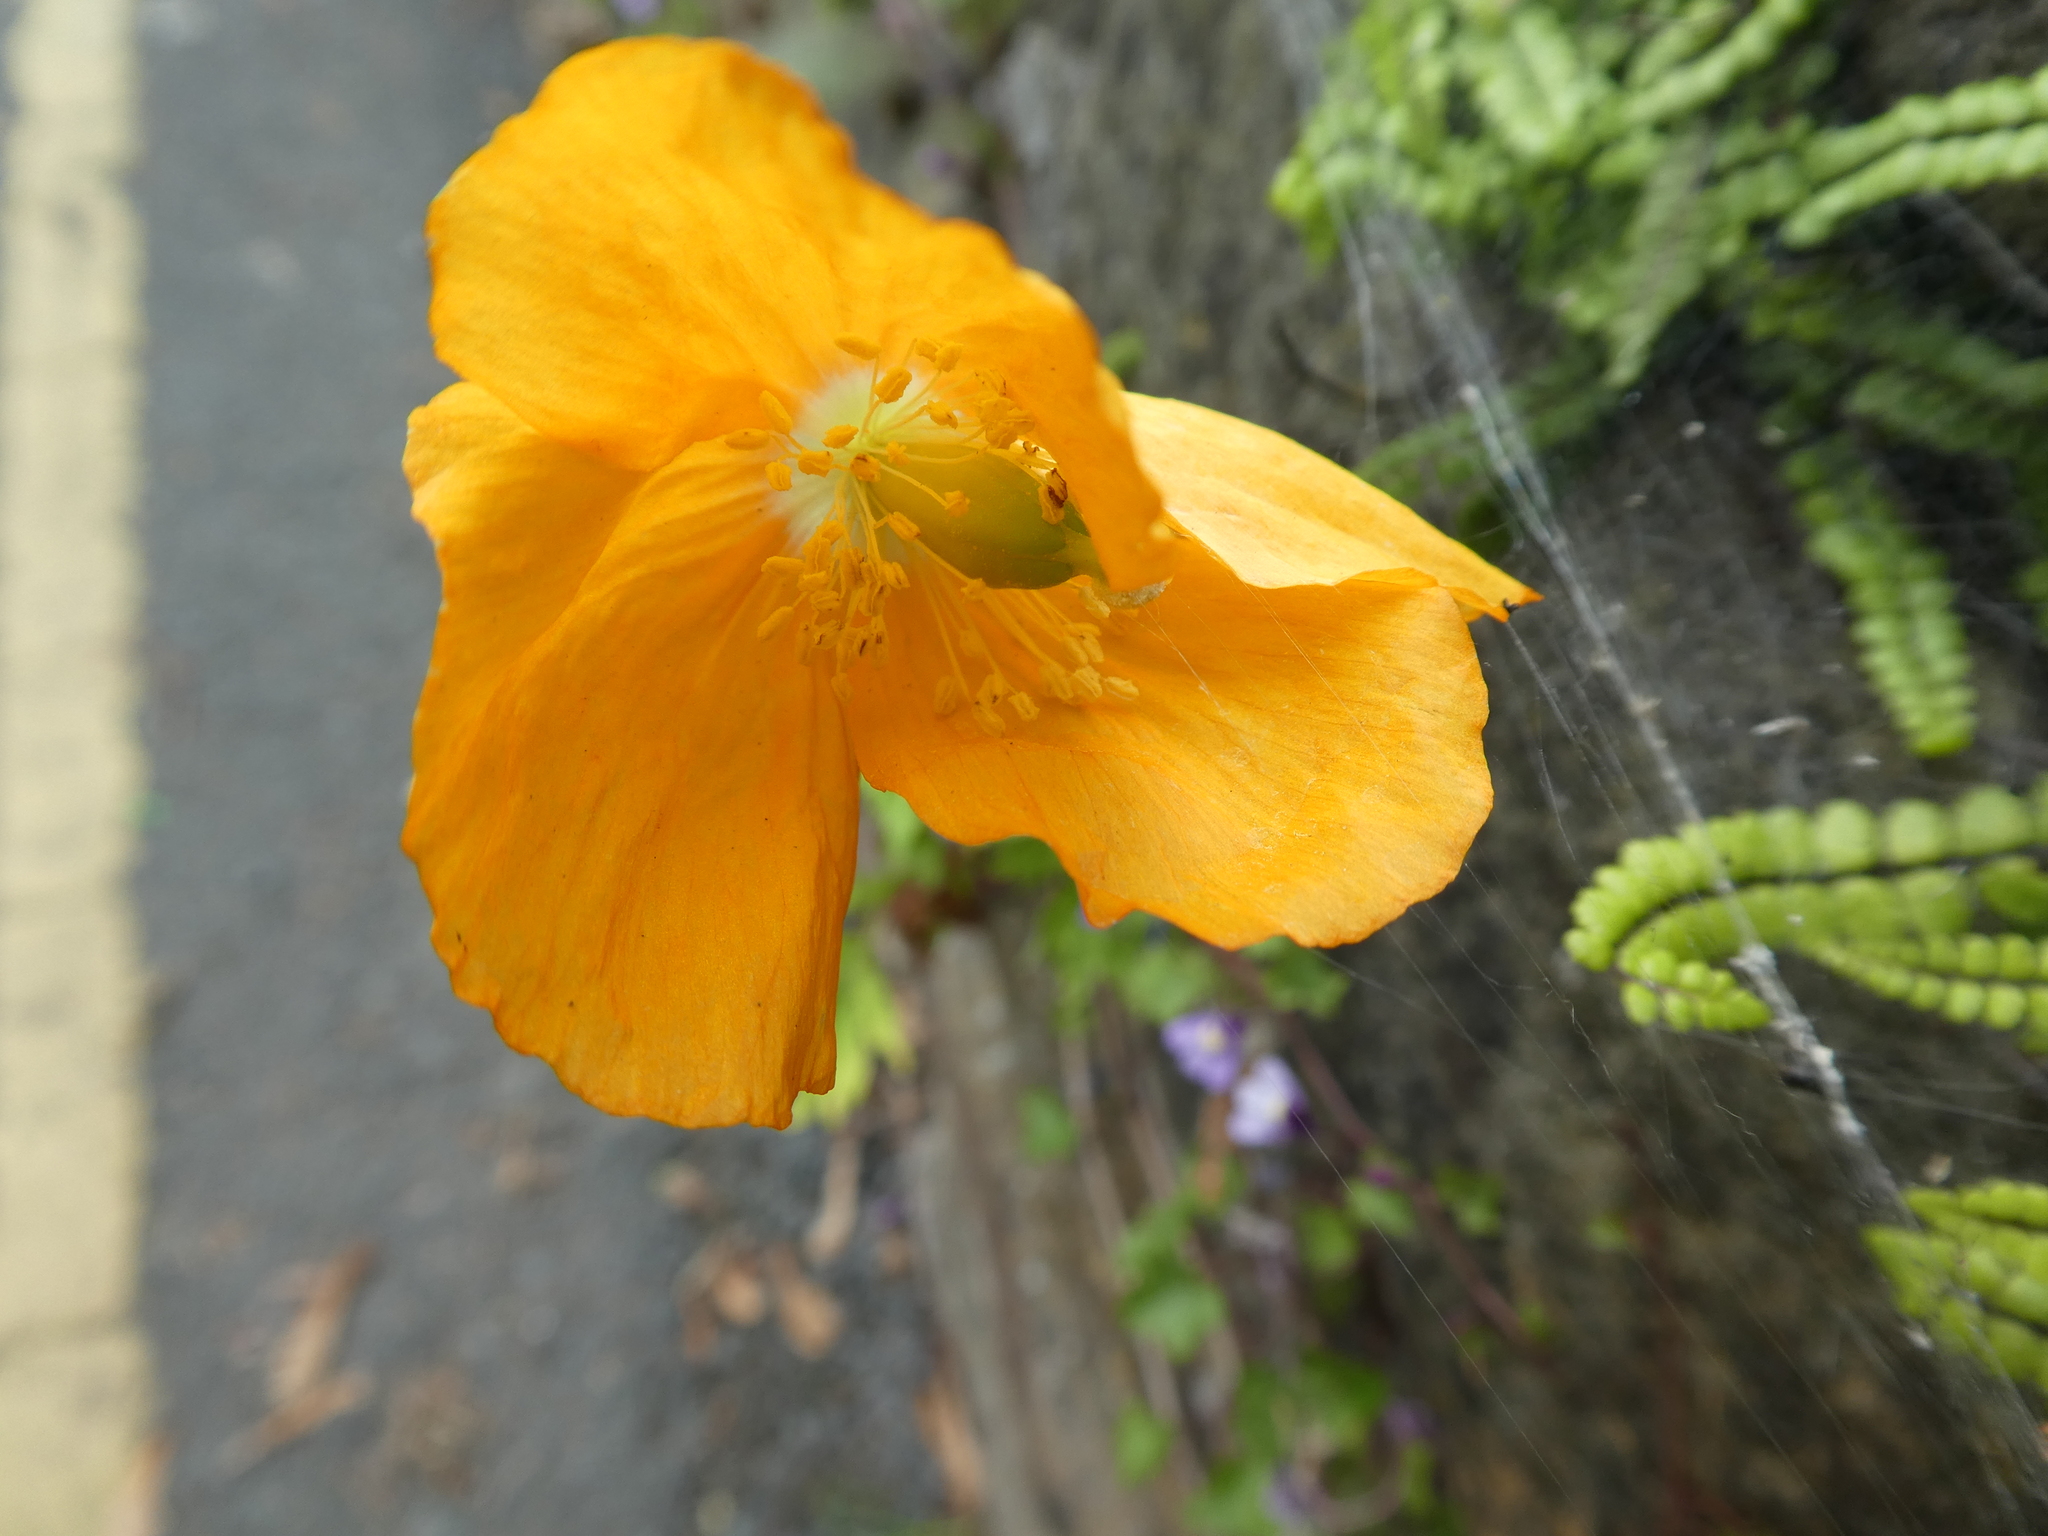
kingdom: Plantae
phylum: Tracheophyta
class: Magnoliopsida
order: Ranunculales
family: Papaveraceae
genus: Papaver
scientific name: Papaver cambricum
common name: Poppy
